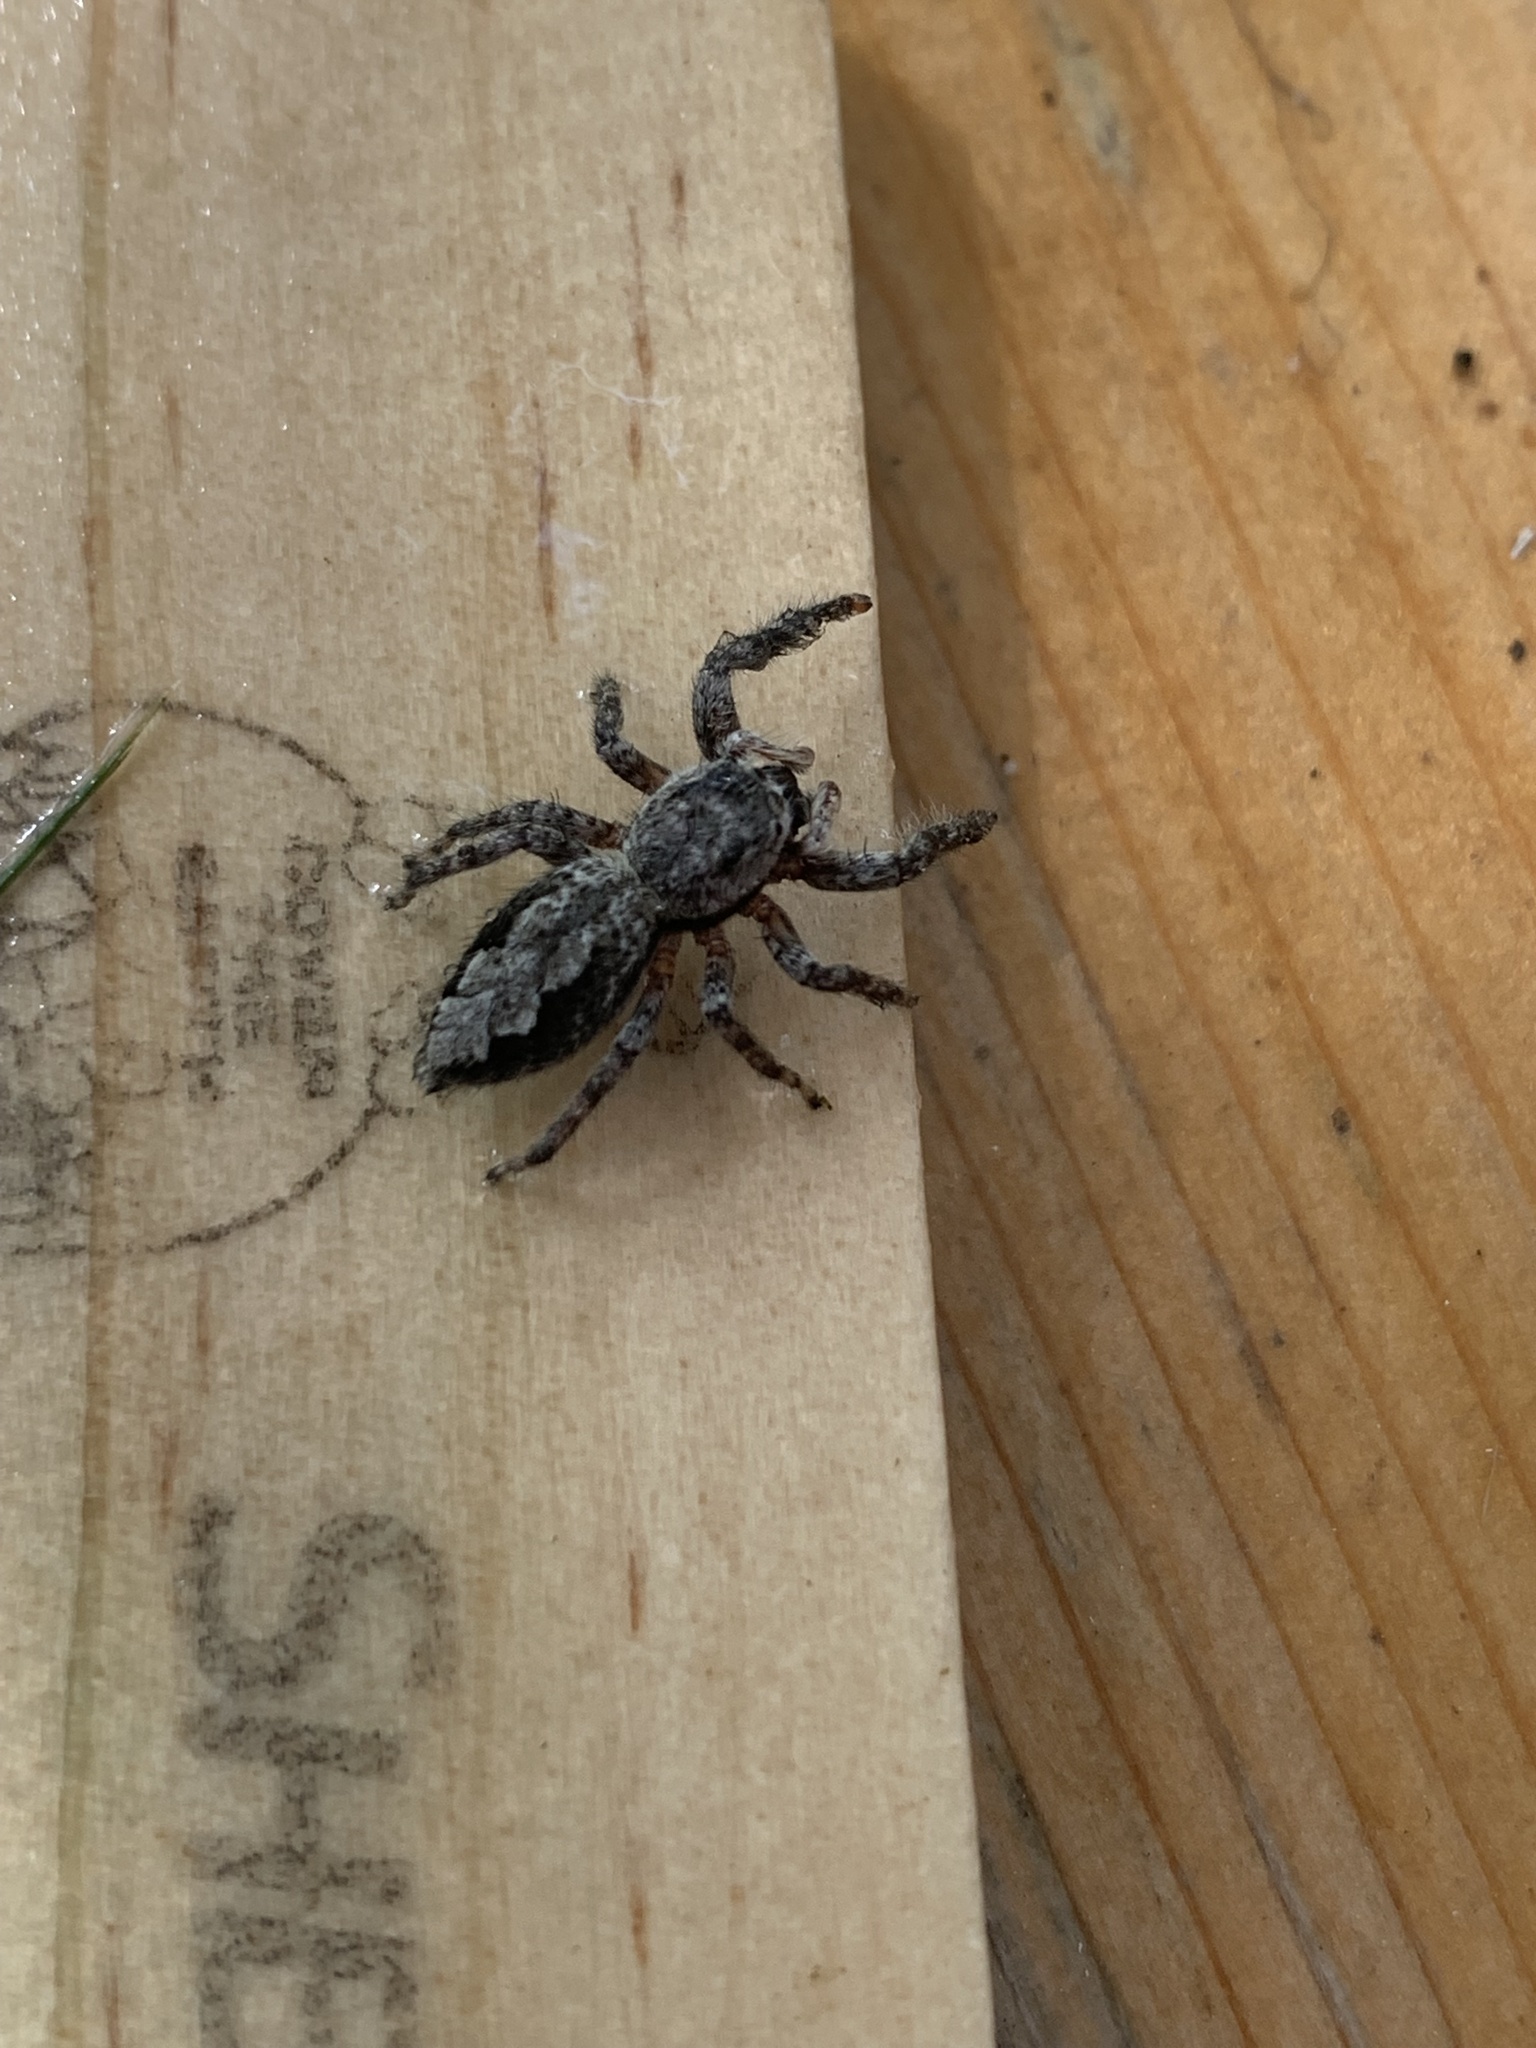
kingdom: Animalia
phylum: Arthropoda
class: Arachnida
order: Araneae
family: Salticidae
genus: Platycryptus
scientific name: Platycryptus undatus
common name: Tan jumping spider
